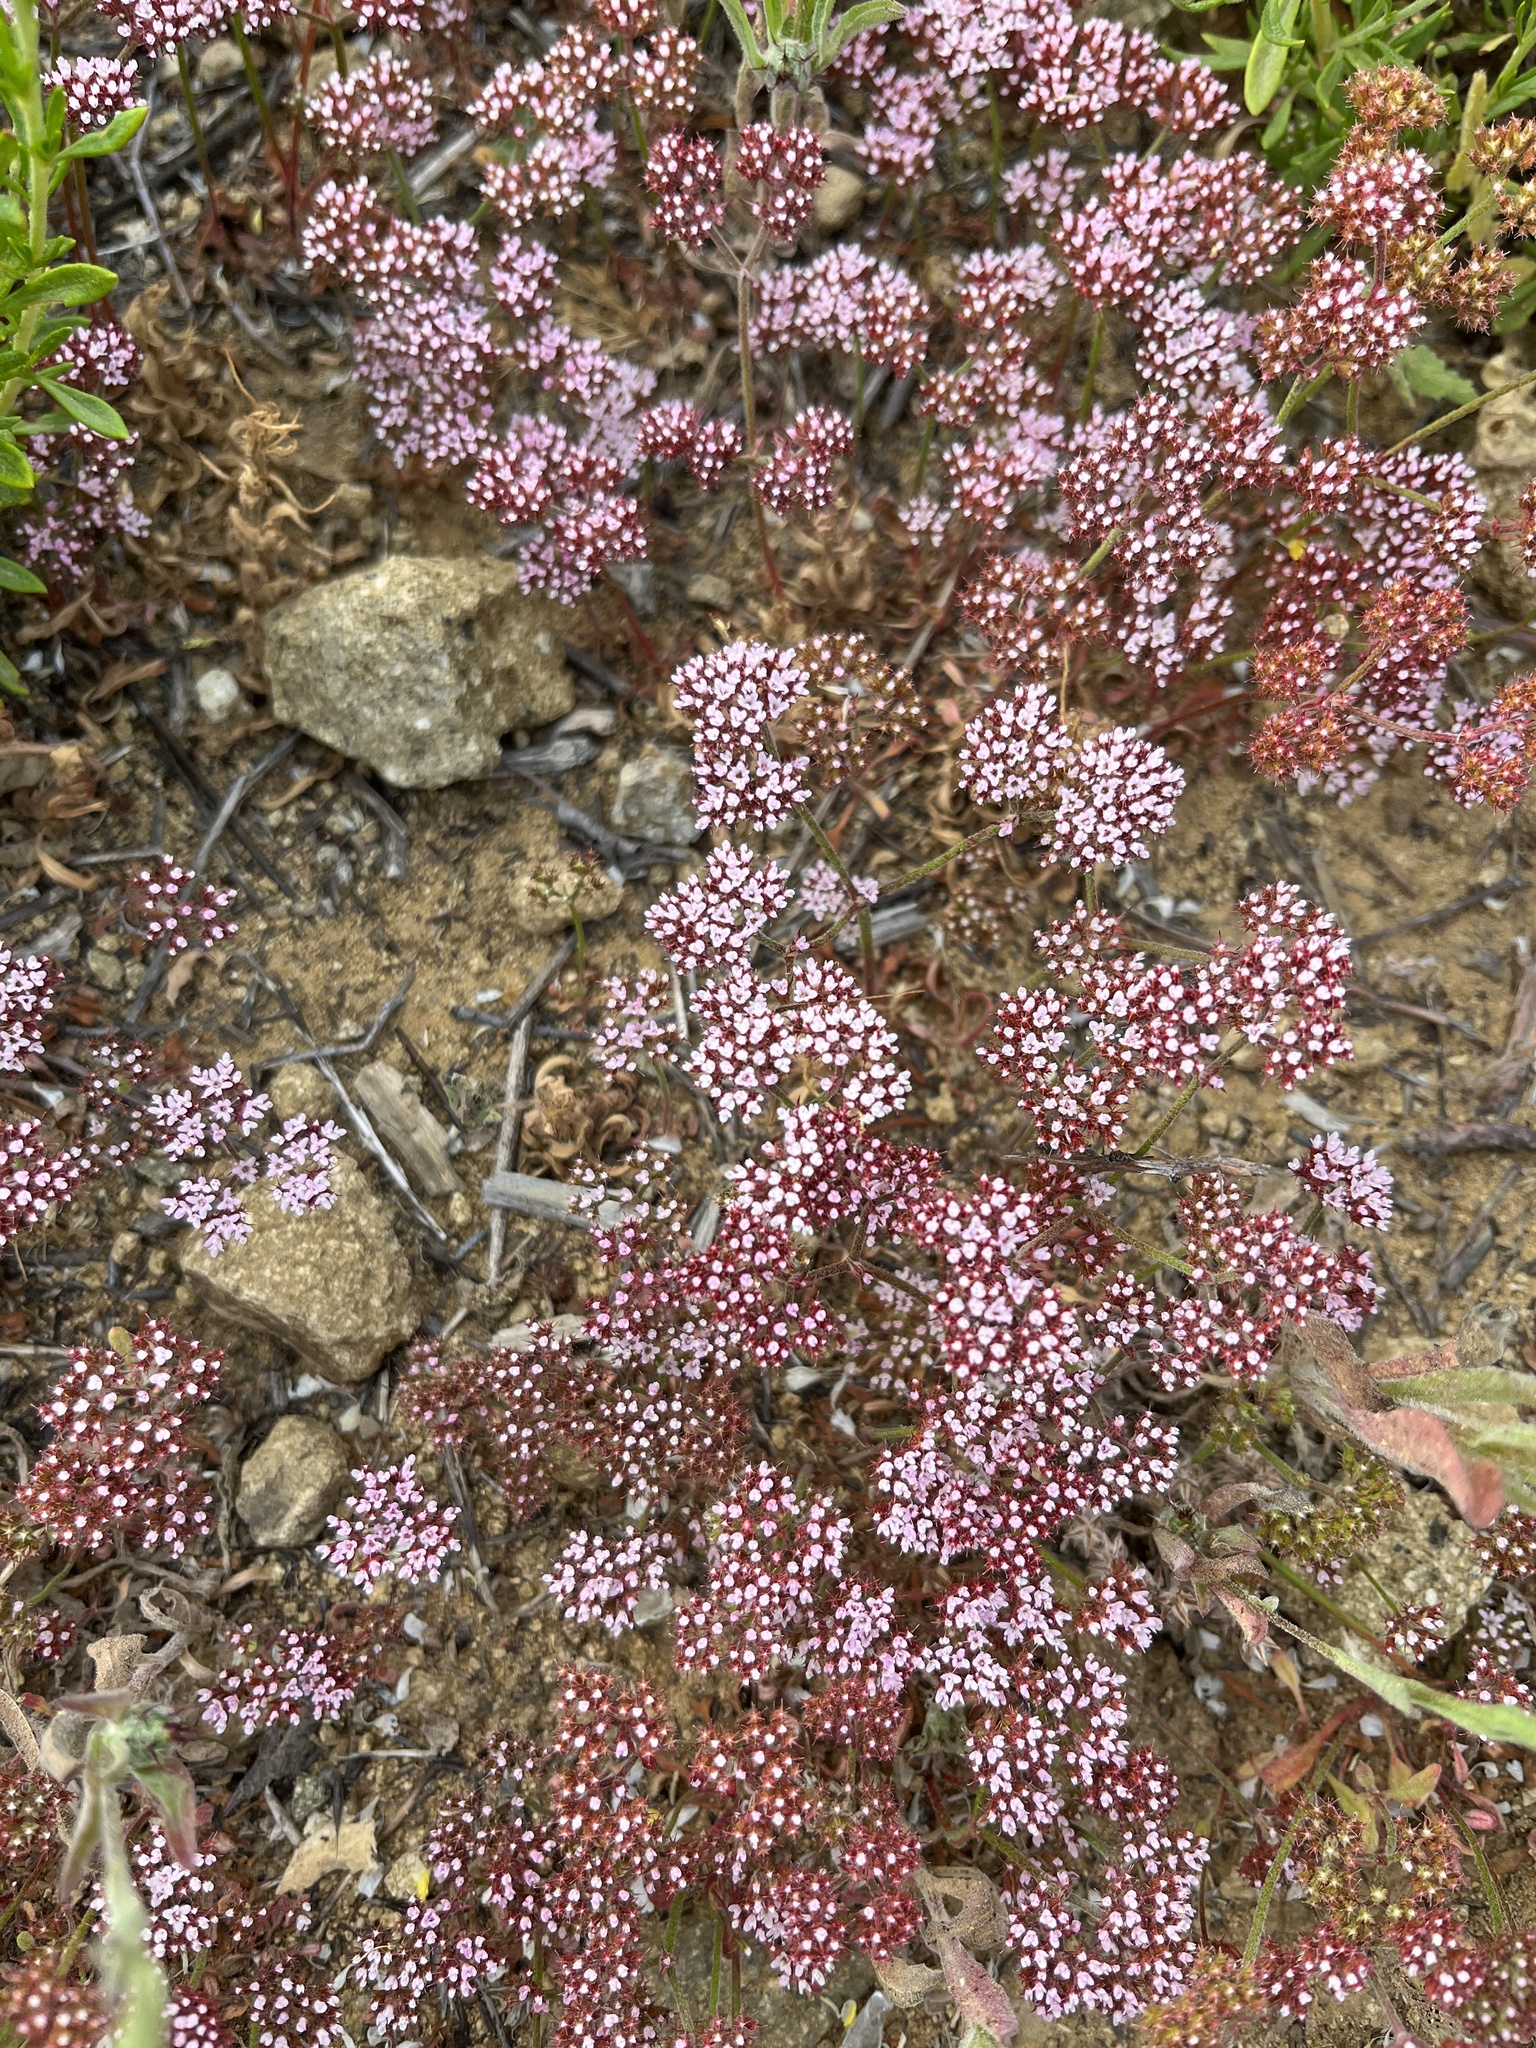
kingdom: Plantae
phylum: Tracheophyta
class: Magnoliopsida
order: Caryophyllales
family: Polygonaceae
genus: Chorizanthe
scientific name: Chorizanthe staticoides
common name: Turkish rugging
